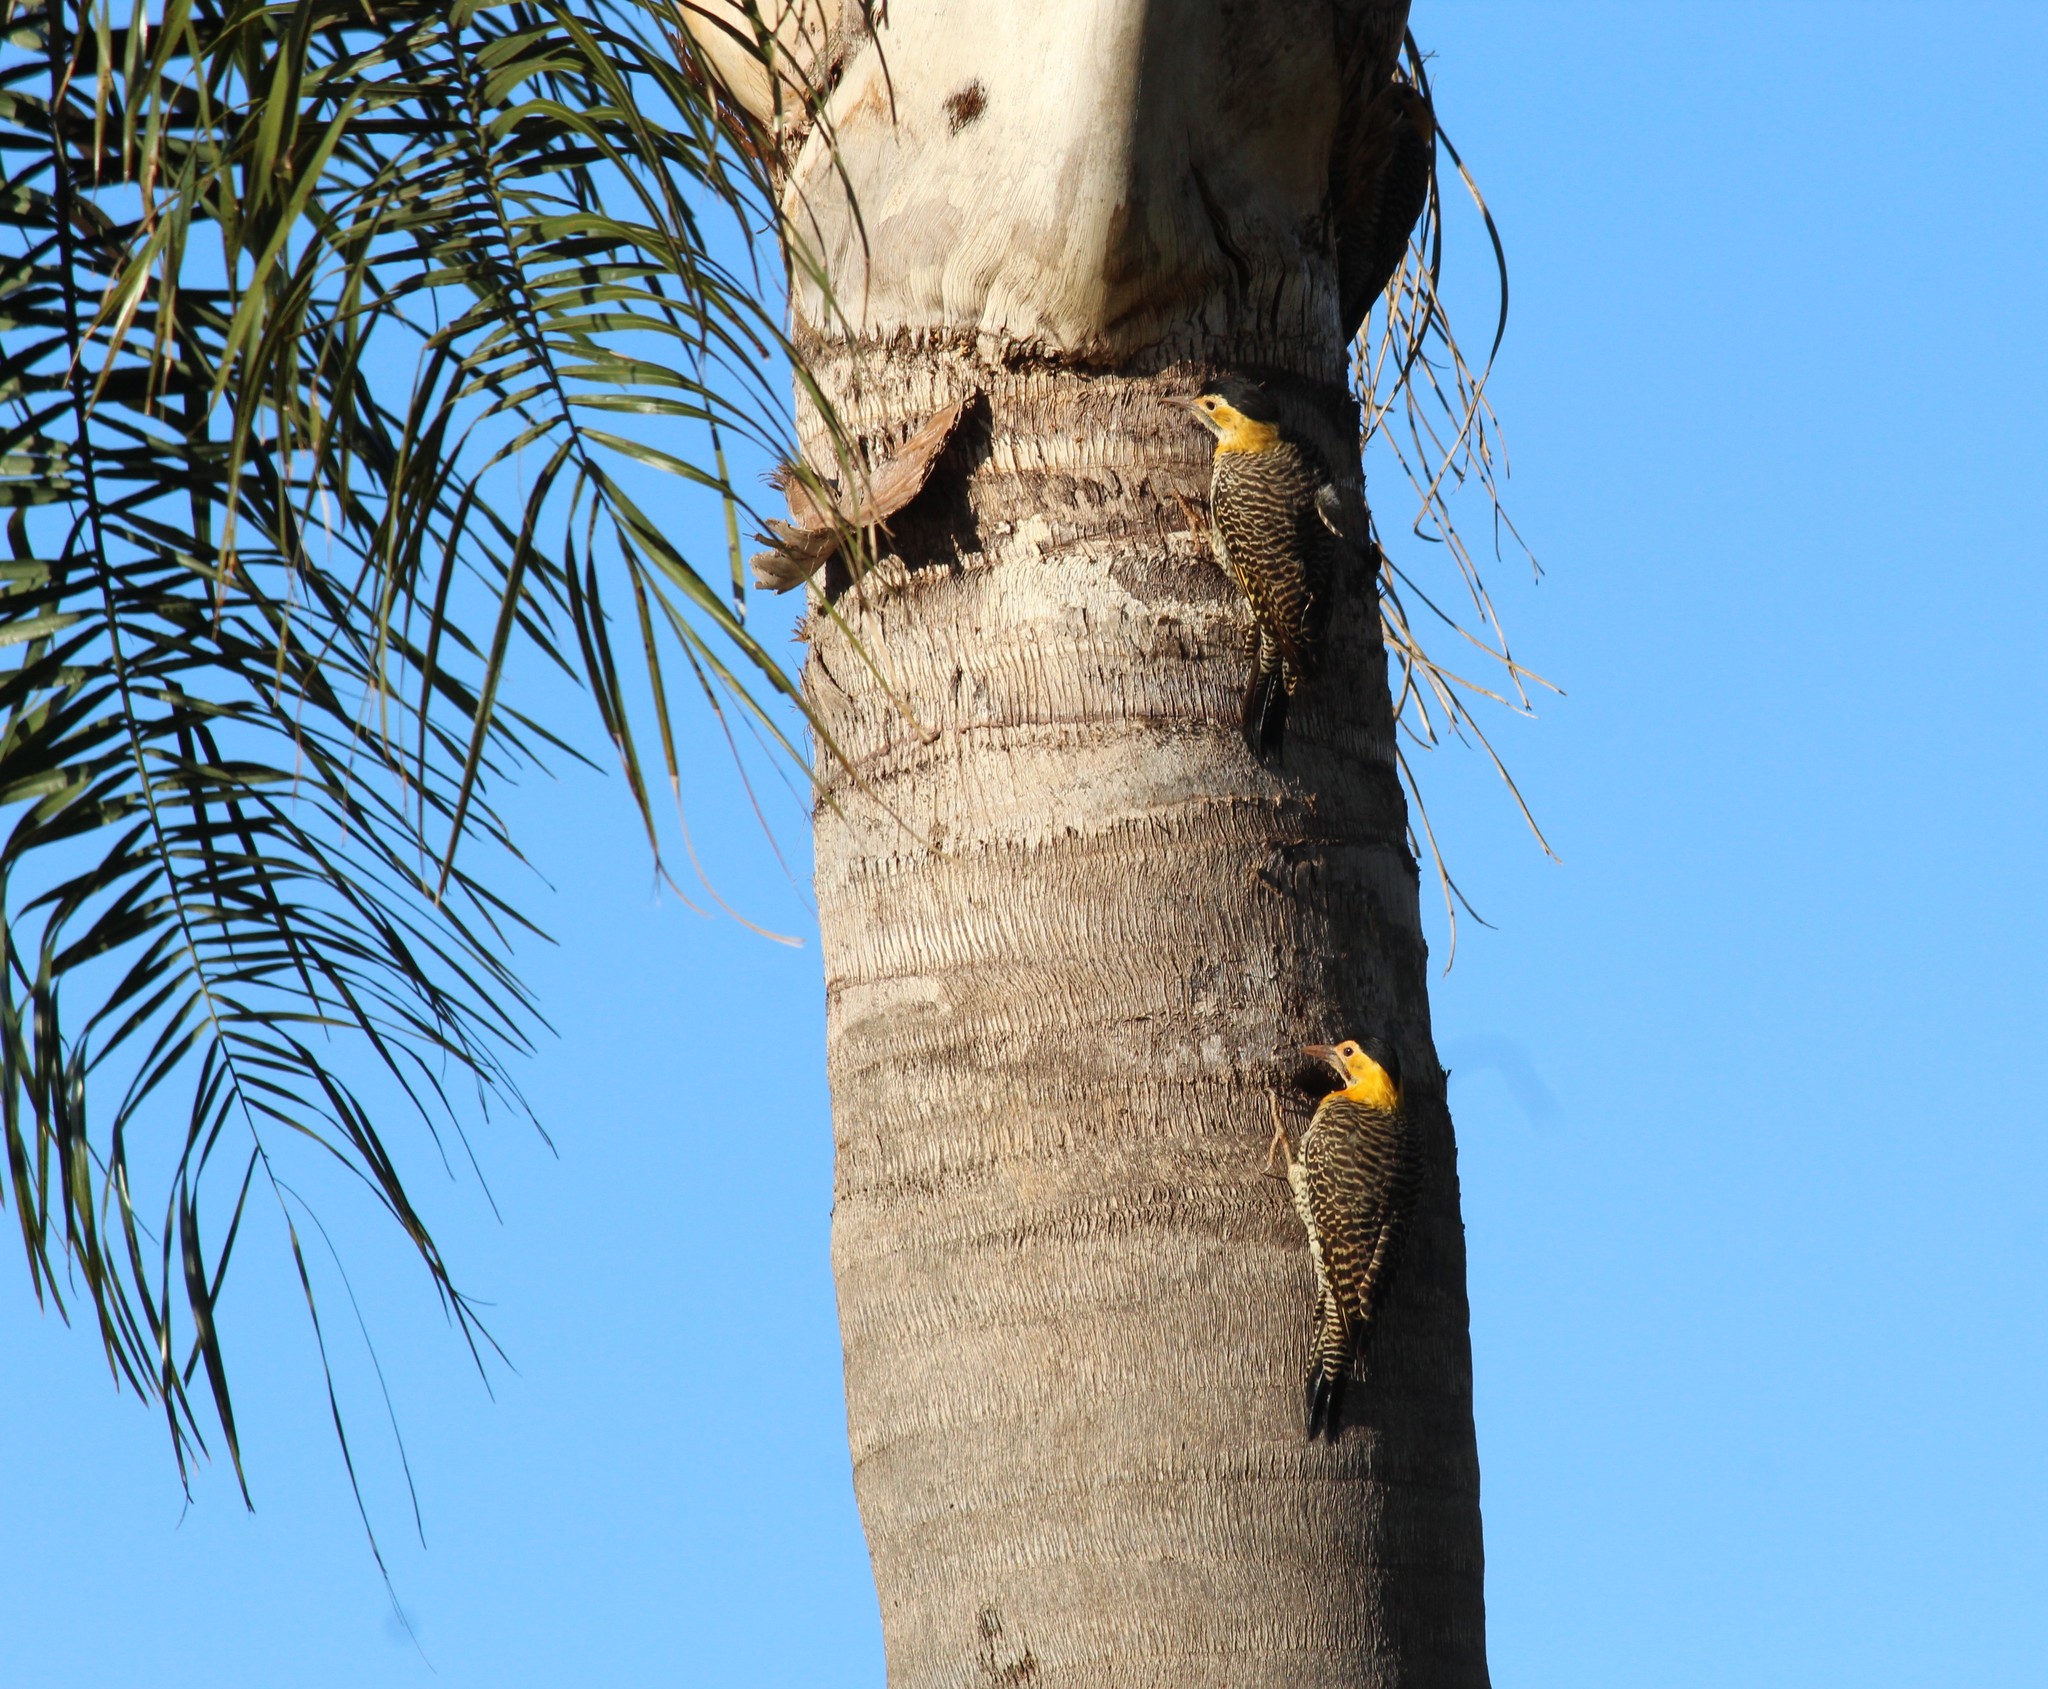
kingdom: Animalia
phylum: Chordata
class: Aves
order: Piciformes
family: Picidae
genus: Colaptes
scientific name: Colaptes campestris
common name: Campo flicker
